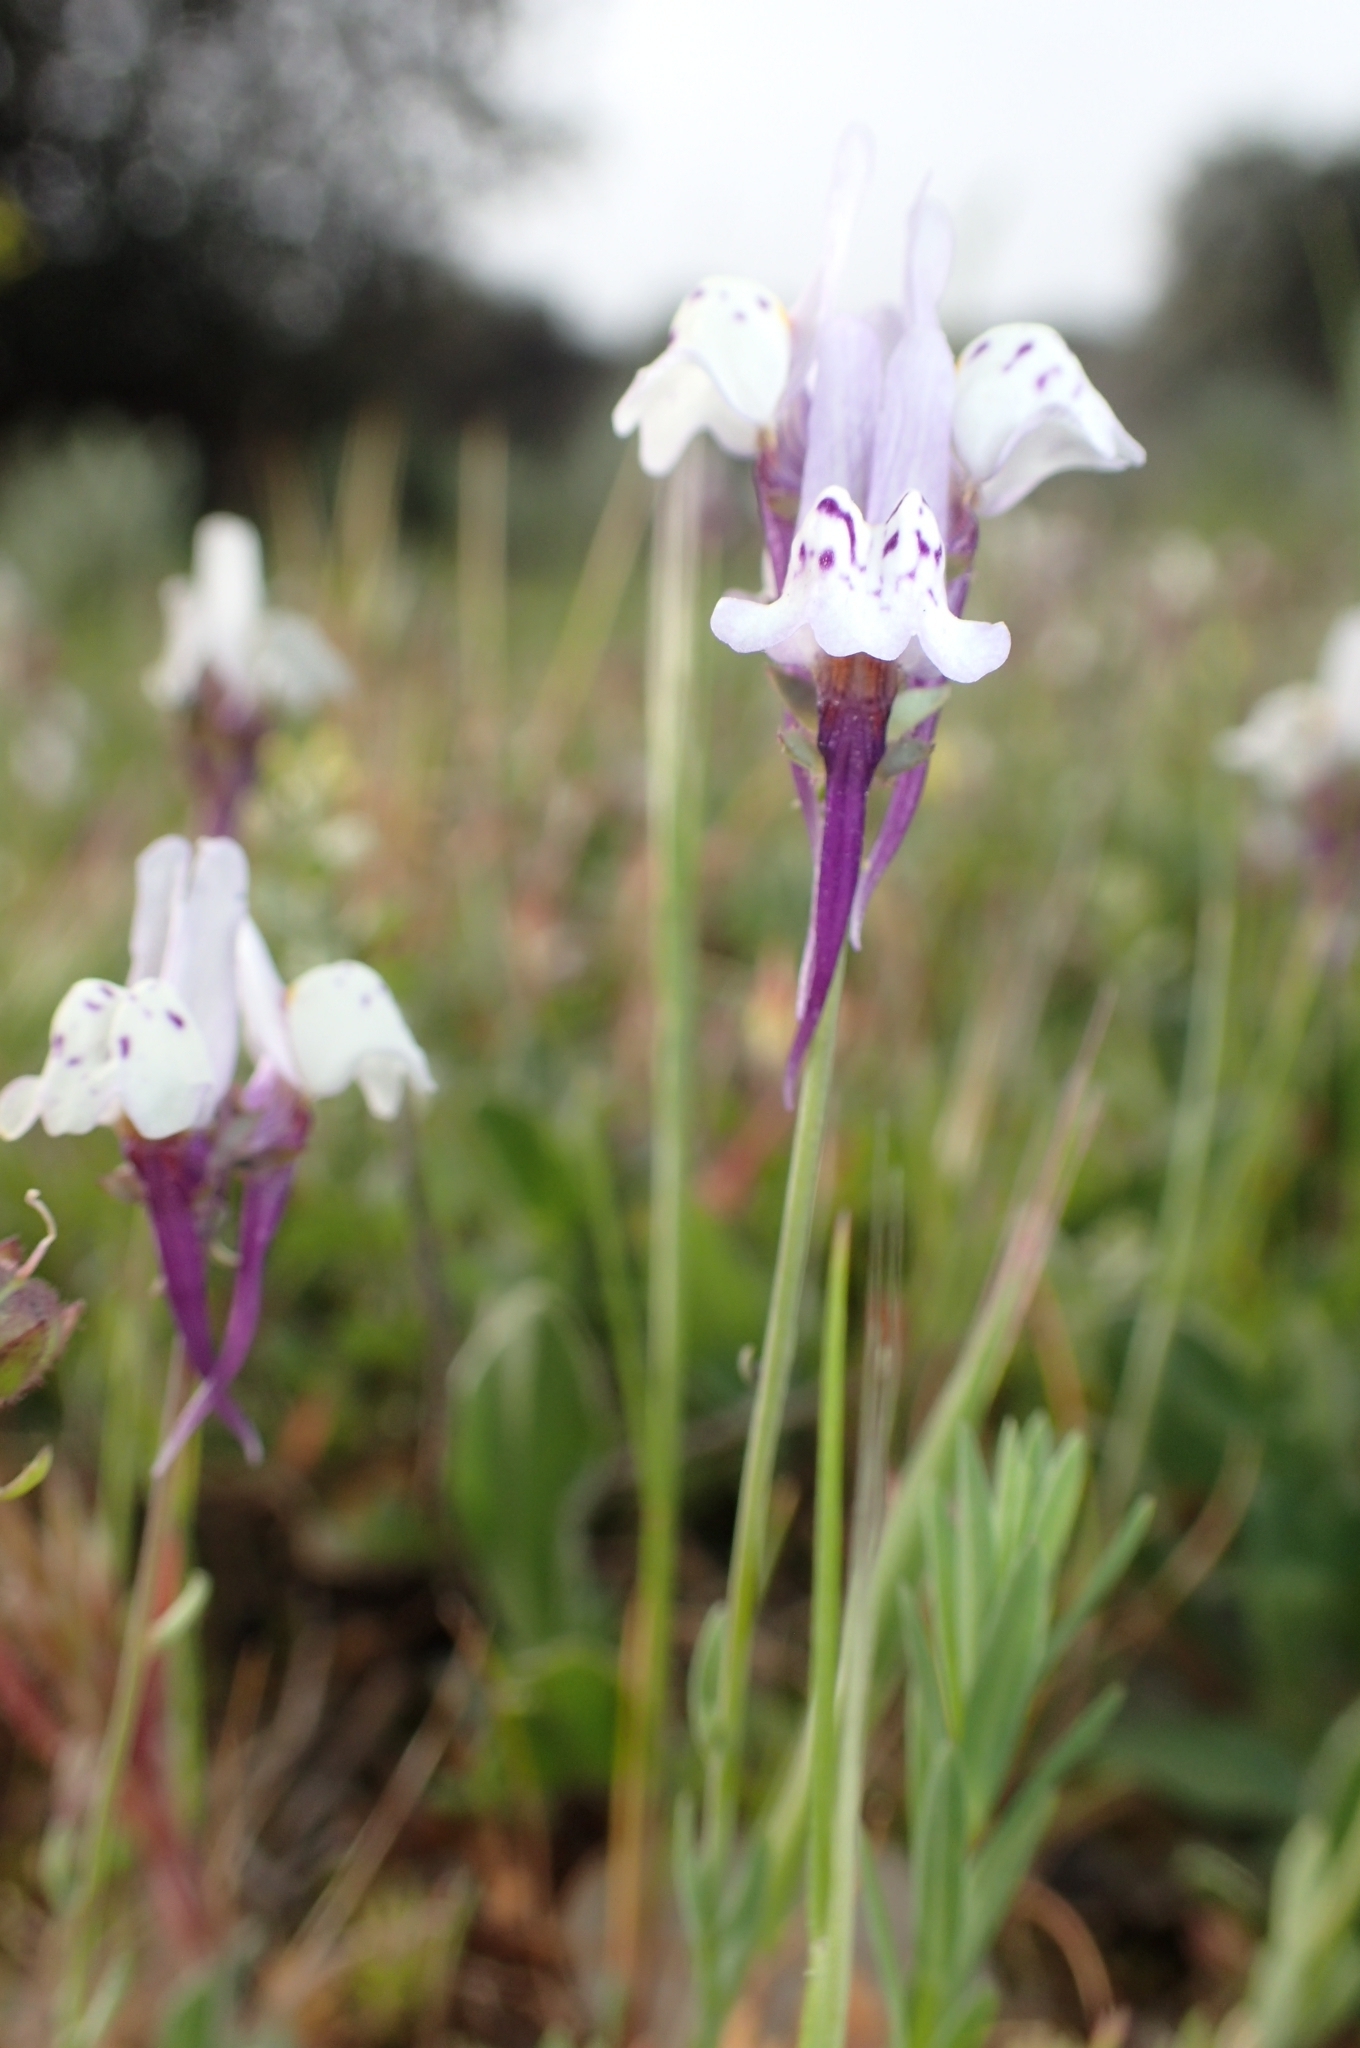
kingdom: Plantae
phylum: Tracheophyta
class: Magnoliopsida
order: Lamiales
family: Plantaginaceae
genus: Linaria
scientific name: Linaria amethystea
